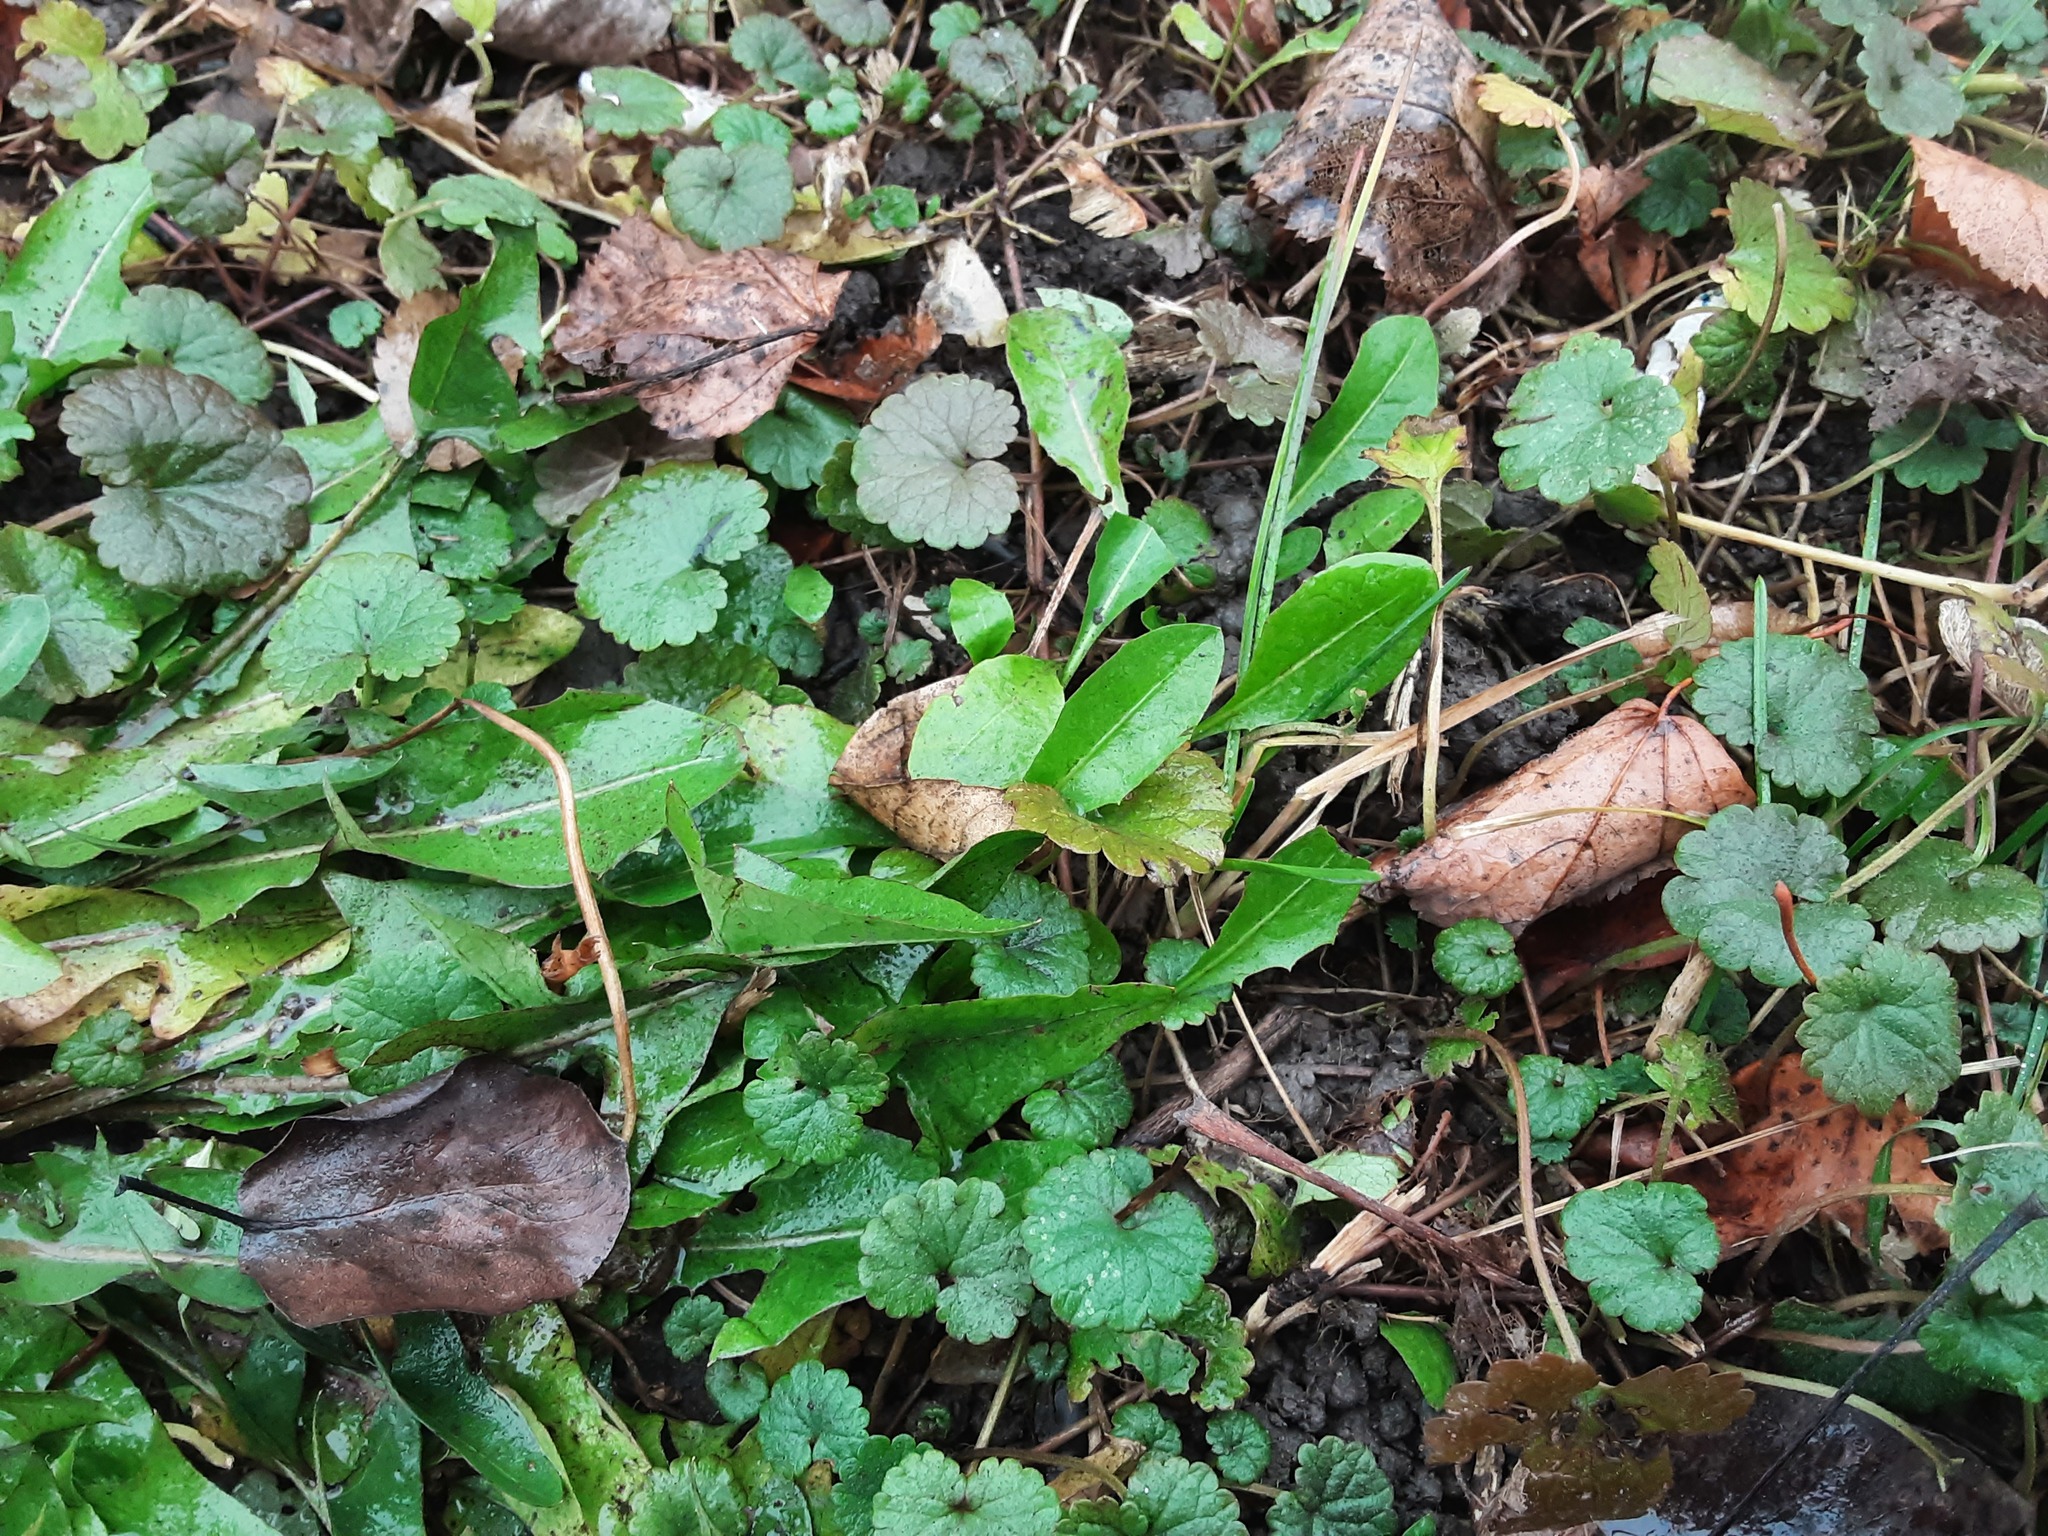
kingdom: Plantae
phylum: Tracheophyta
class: Magnoliopsida
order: Lamiales
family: Lamiaceae
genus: Glechoma
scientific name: Glechoma hederacea
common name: Ground ivy
